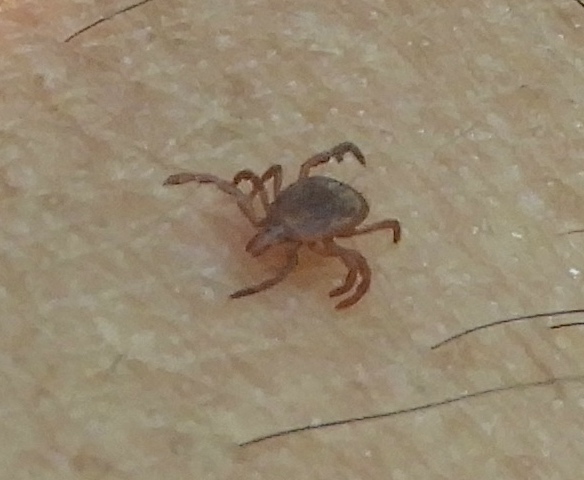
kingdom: Animalia
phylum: Arthropoda
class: Arachnida
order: Ixodida
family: Ixodidae
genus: Amblyomma
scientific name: Amblyomma
